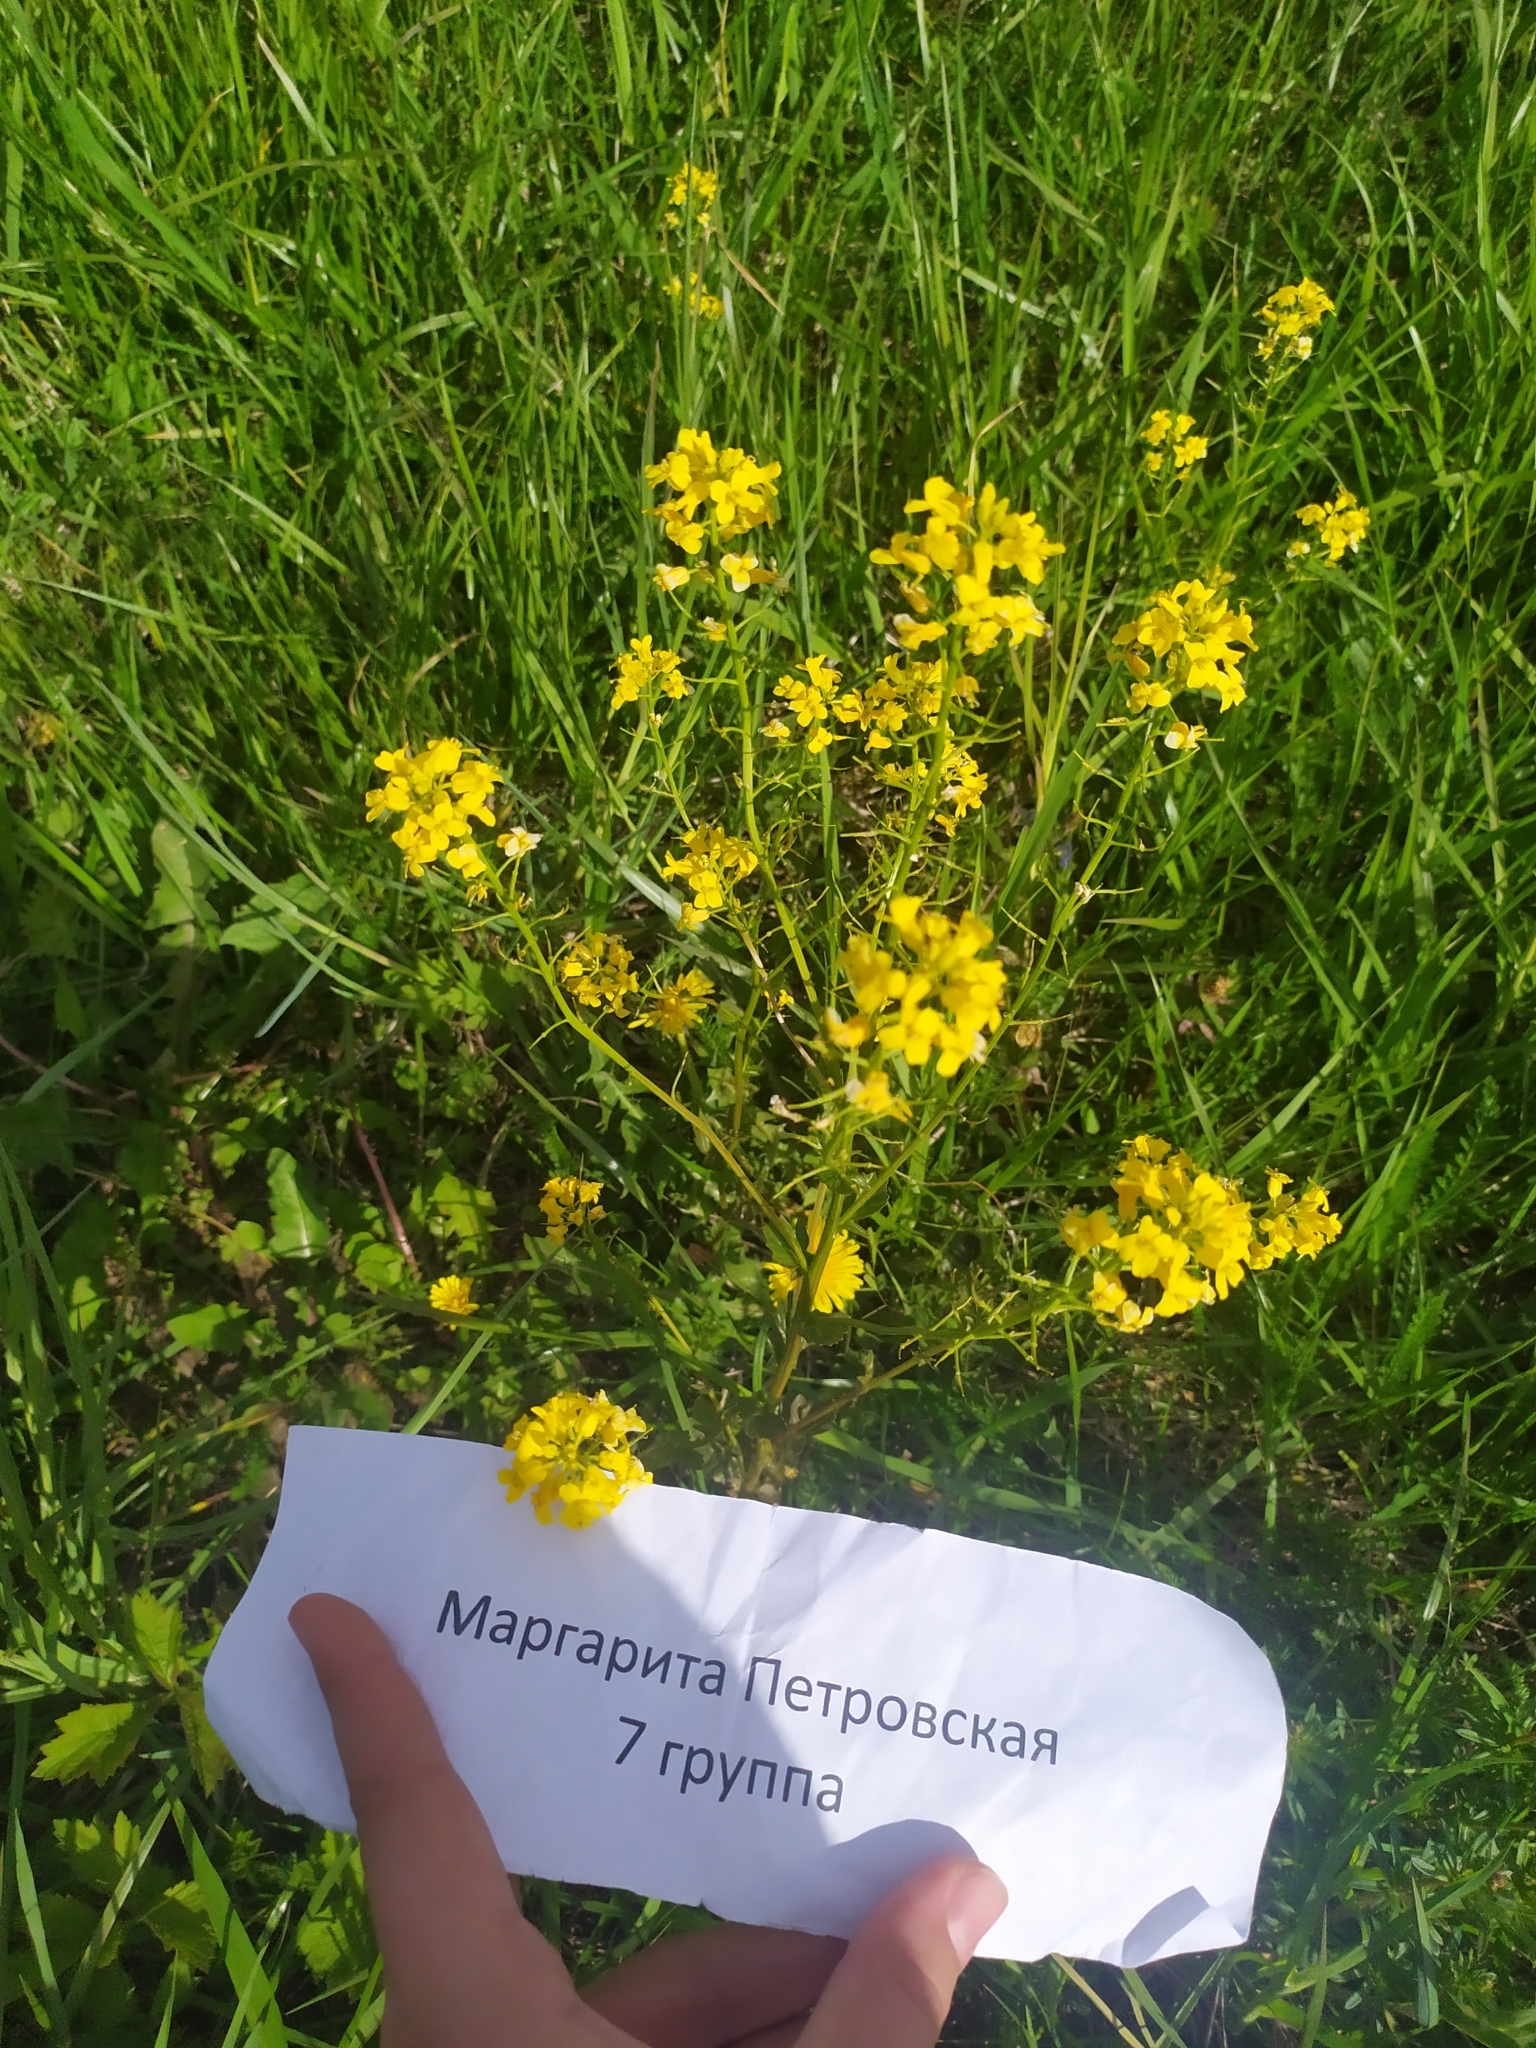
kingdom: Plantae
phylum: Tracheophyta
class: Magnoliopsida
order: Brassicales
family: Brassicaceae
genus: Barbarea
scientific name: Barbarea vulgaris
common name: Cressy-greens
